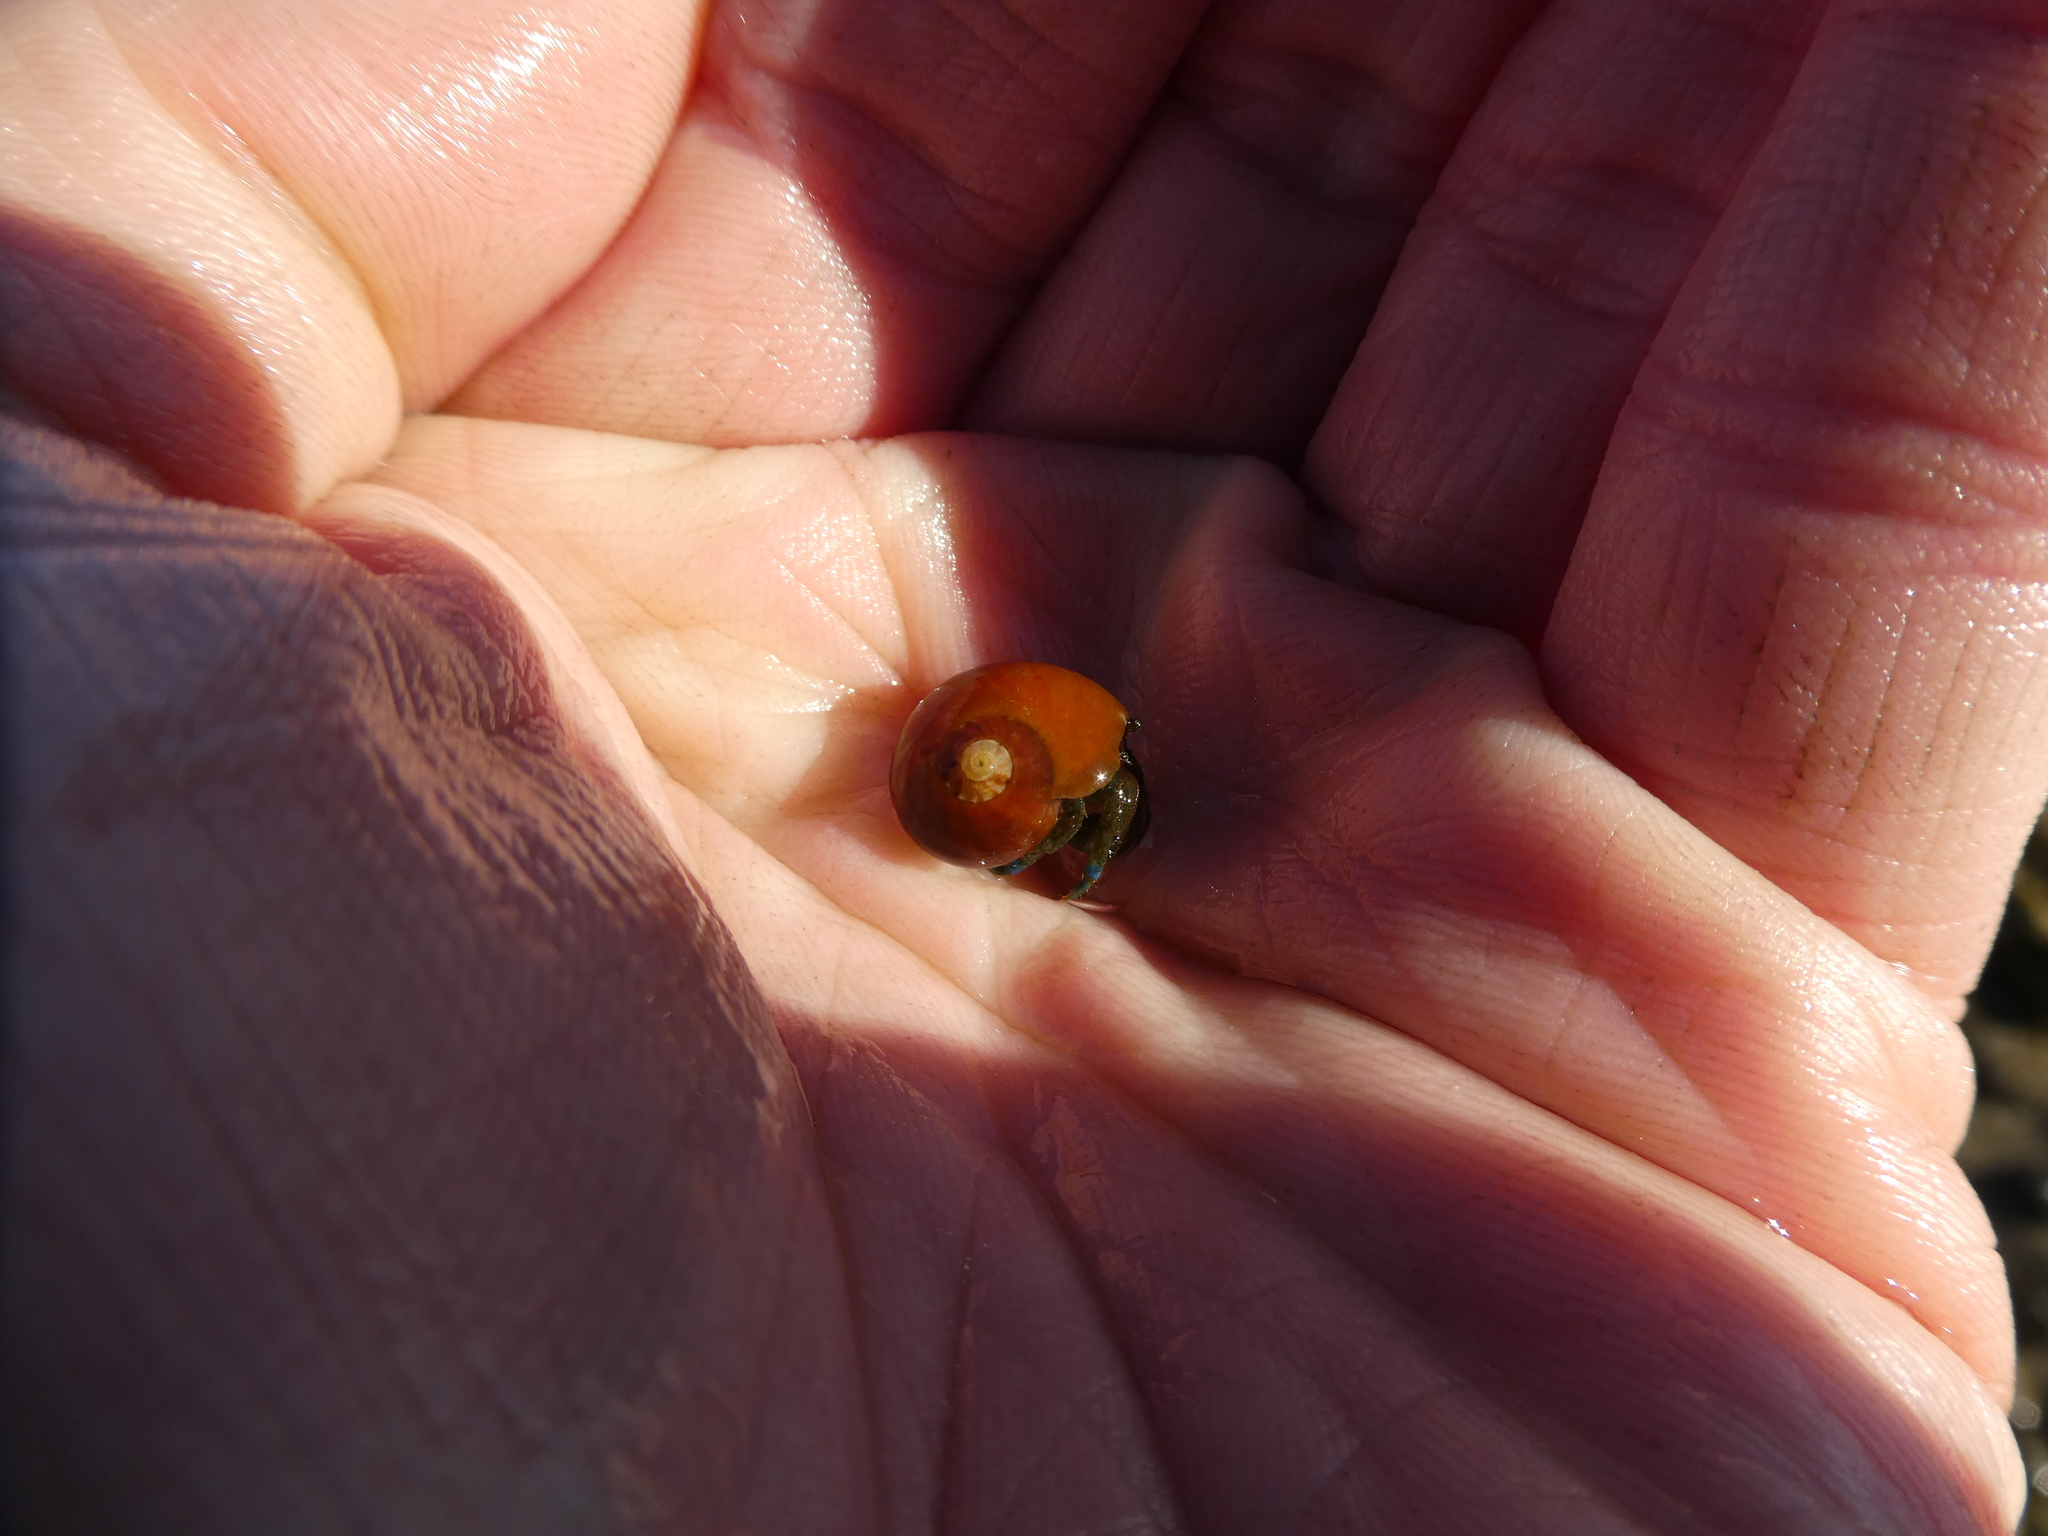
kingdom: Animalia
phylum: Arthropoda
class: Malacostraca
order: Decapoda
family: Paguridae
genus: Pagurus
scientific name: Pagurus samuelis
